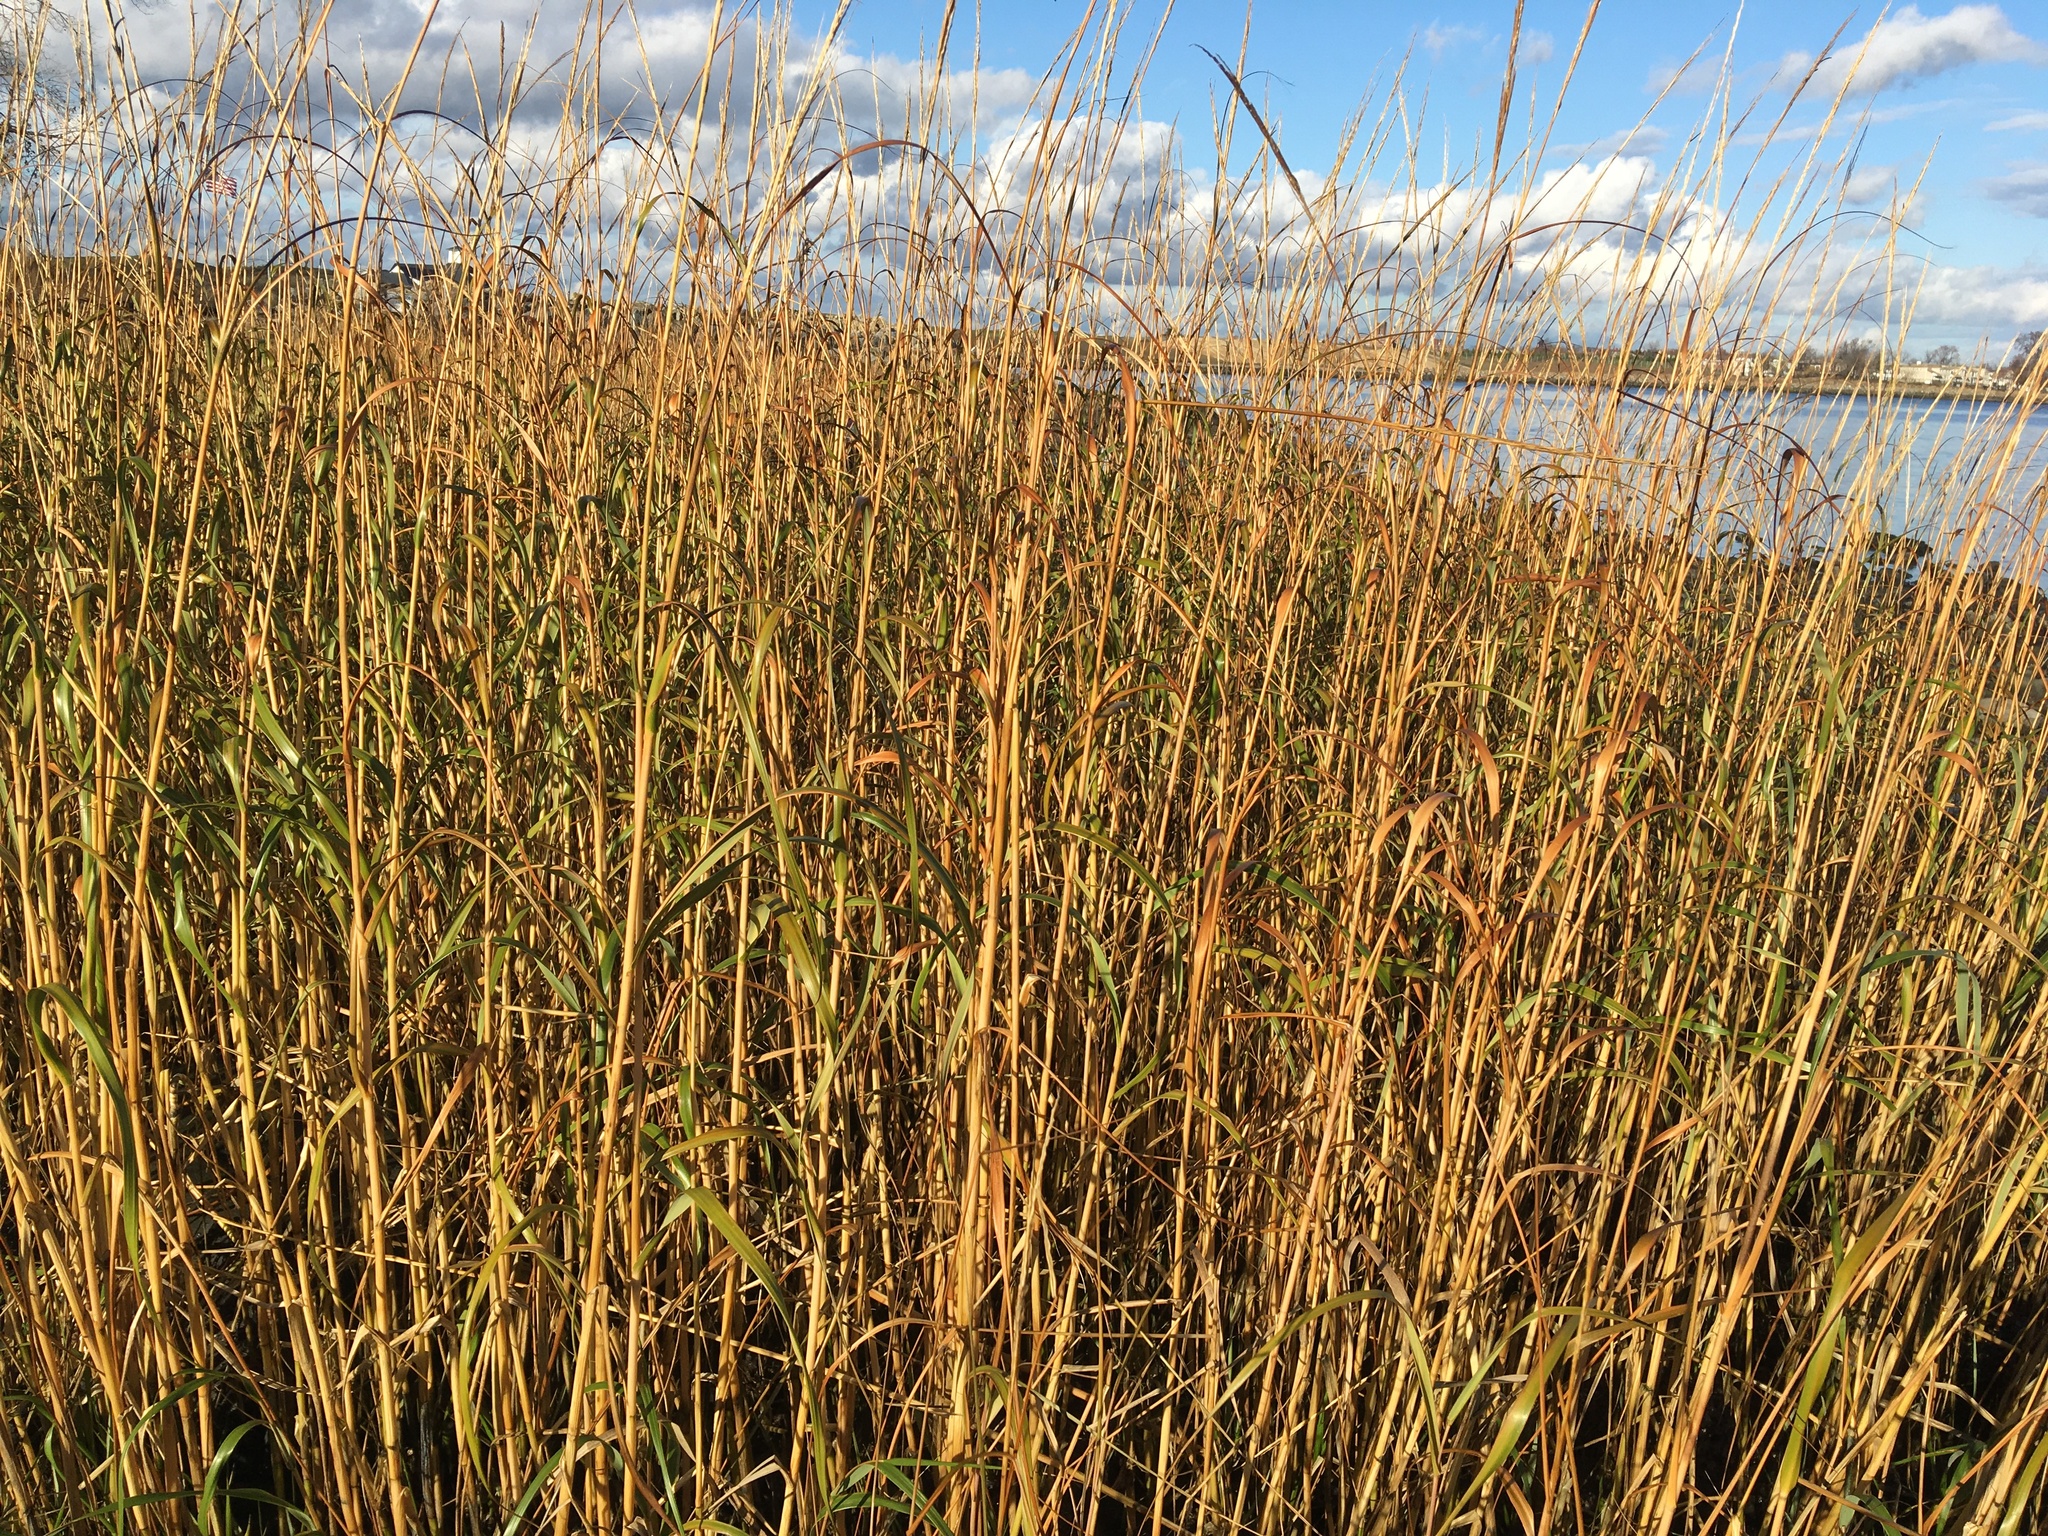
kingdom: Plantae
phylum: Tracheophyta
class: Liliopsida
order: Poales
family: Poaceae
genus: Sporobolus
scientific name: Sporobolus alterniflorus
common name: Atlantic cordgrass
